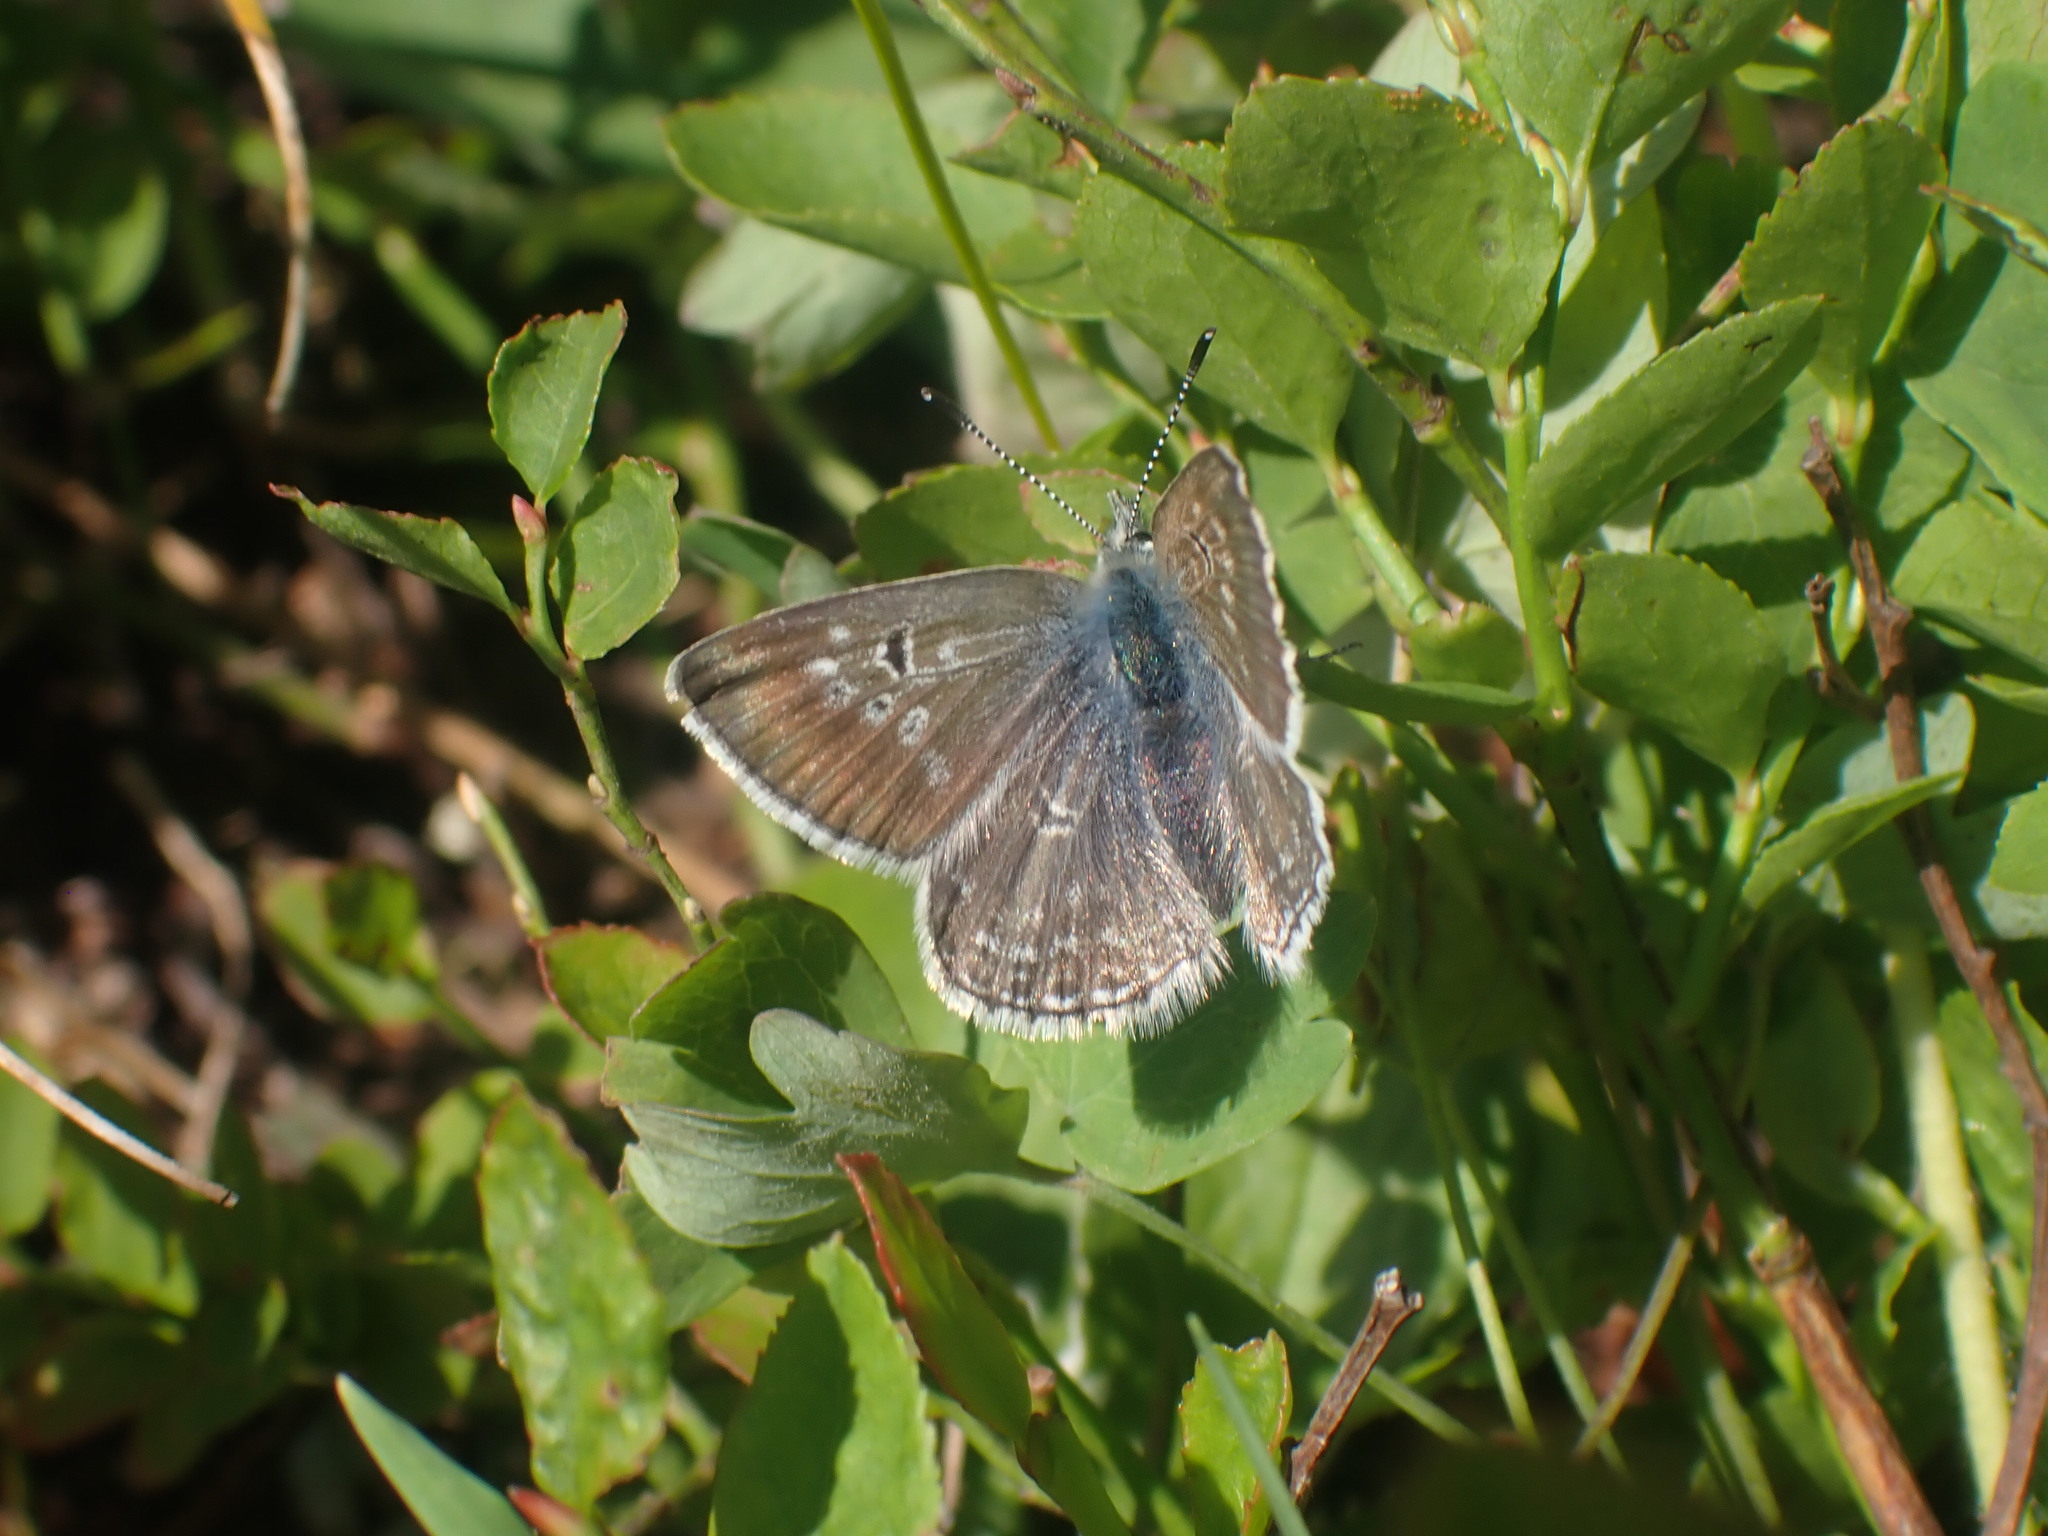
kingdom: Animalia
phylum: Arthropoda
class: Insecta
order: Lepidoptera
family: Lycaenidae
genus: Agriades
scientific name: Agriades glandon
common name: Glandon blue
